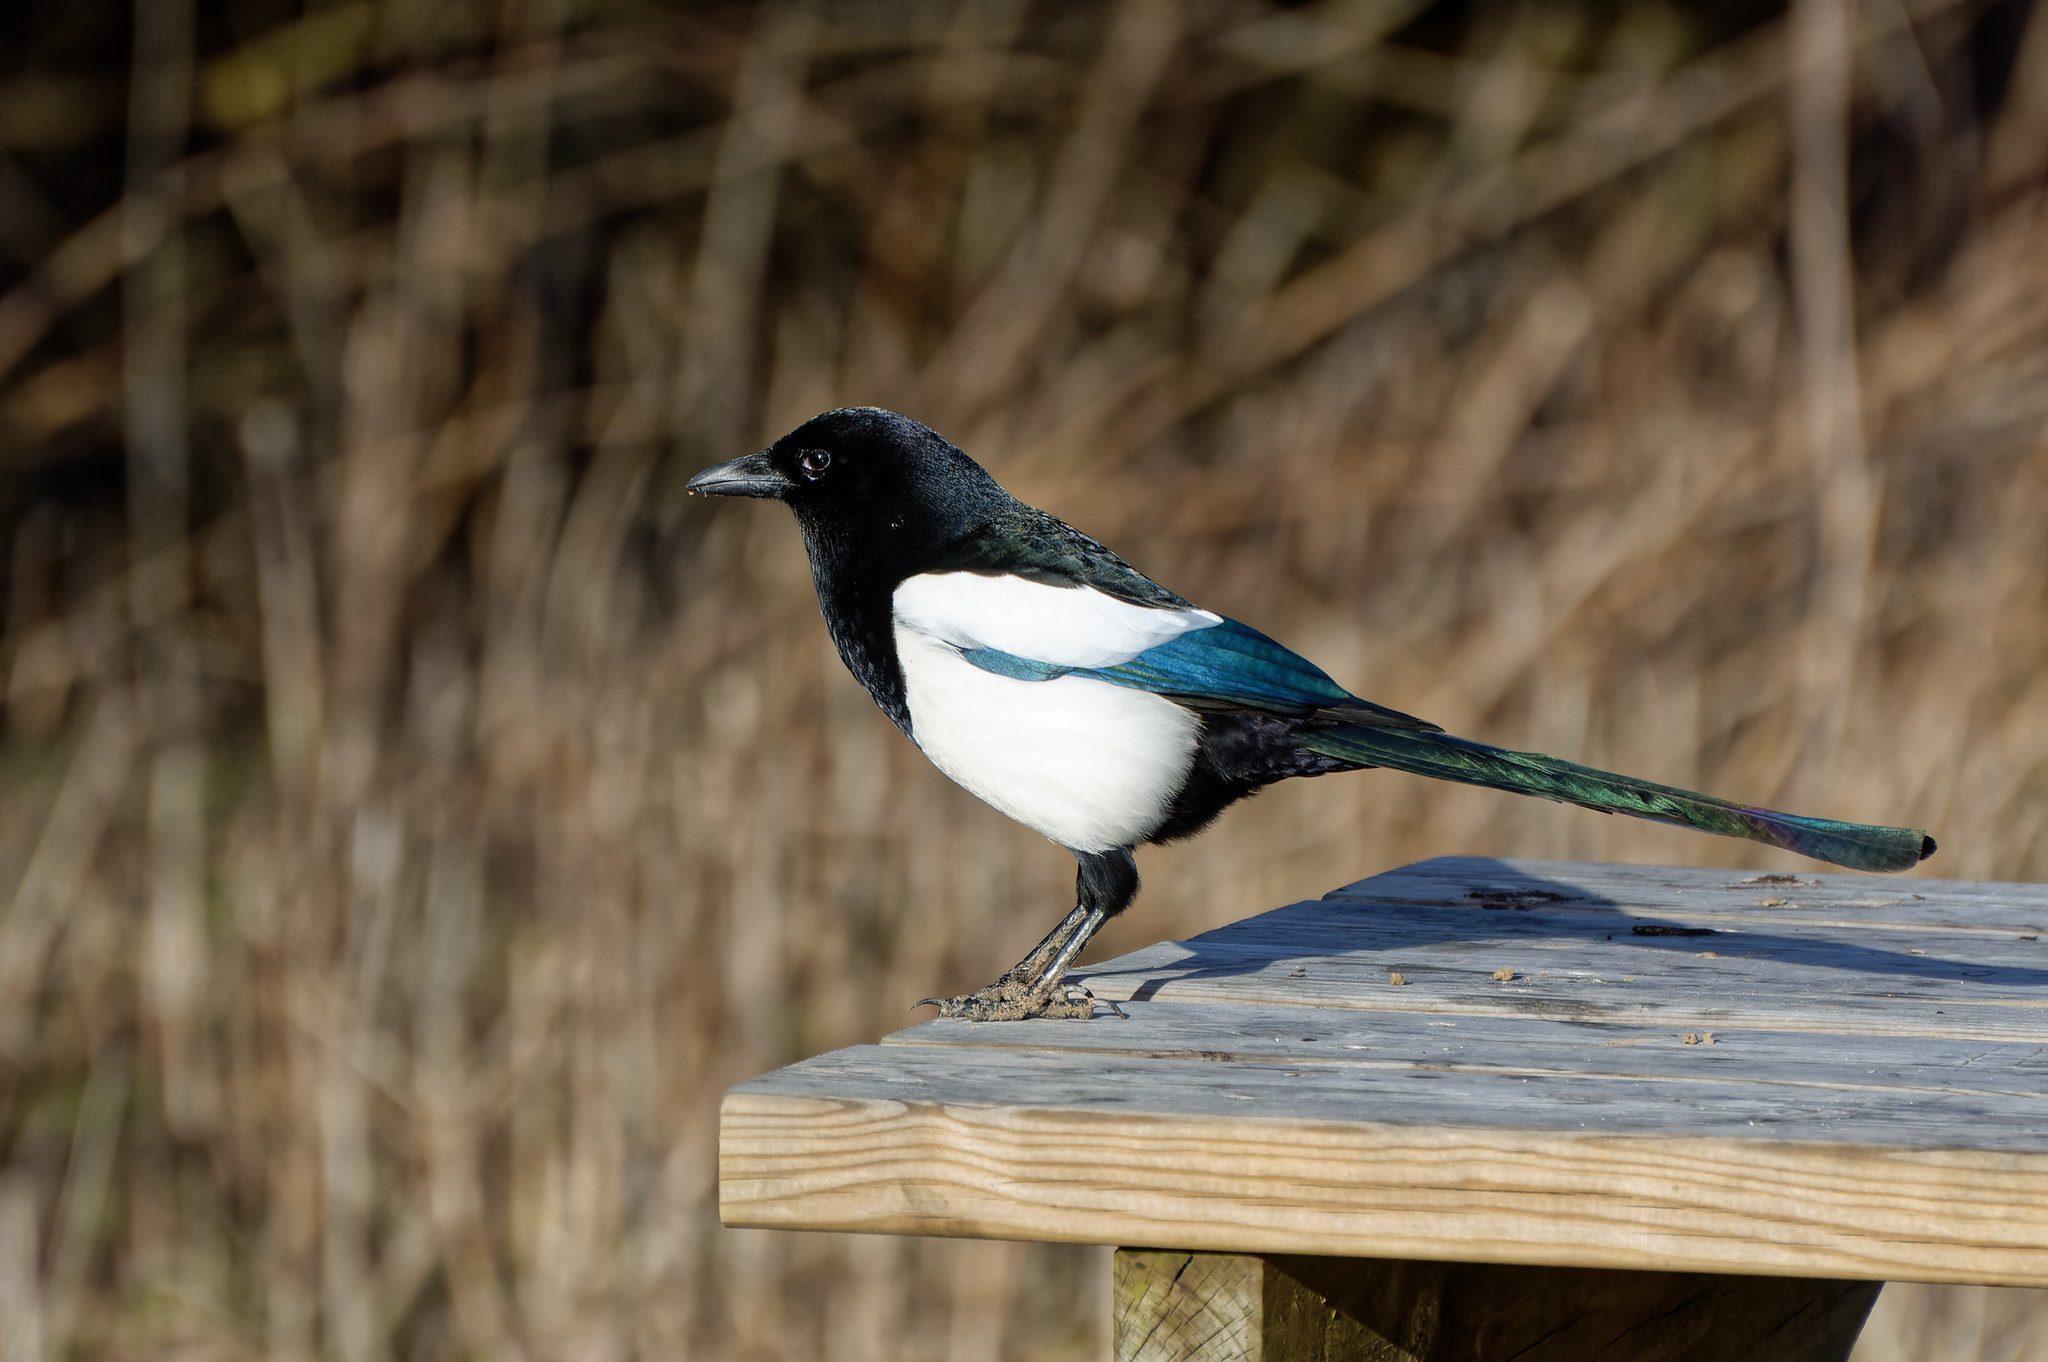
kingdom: Animalia
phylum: Chordata
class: Aves
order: Passeriformes
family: Corvidae
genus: Pica
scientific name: Pica pica
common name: Eurasian magpie
